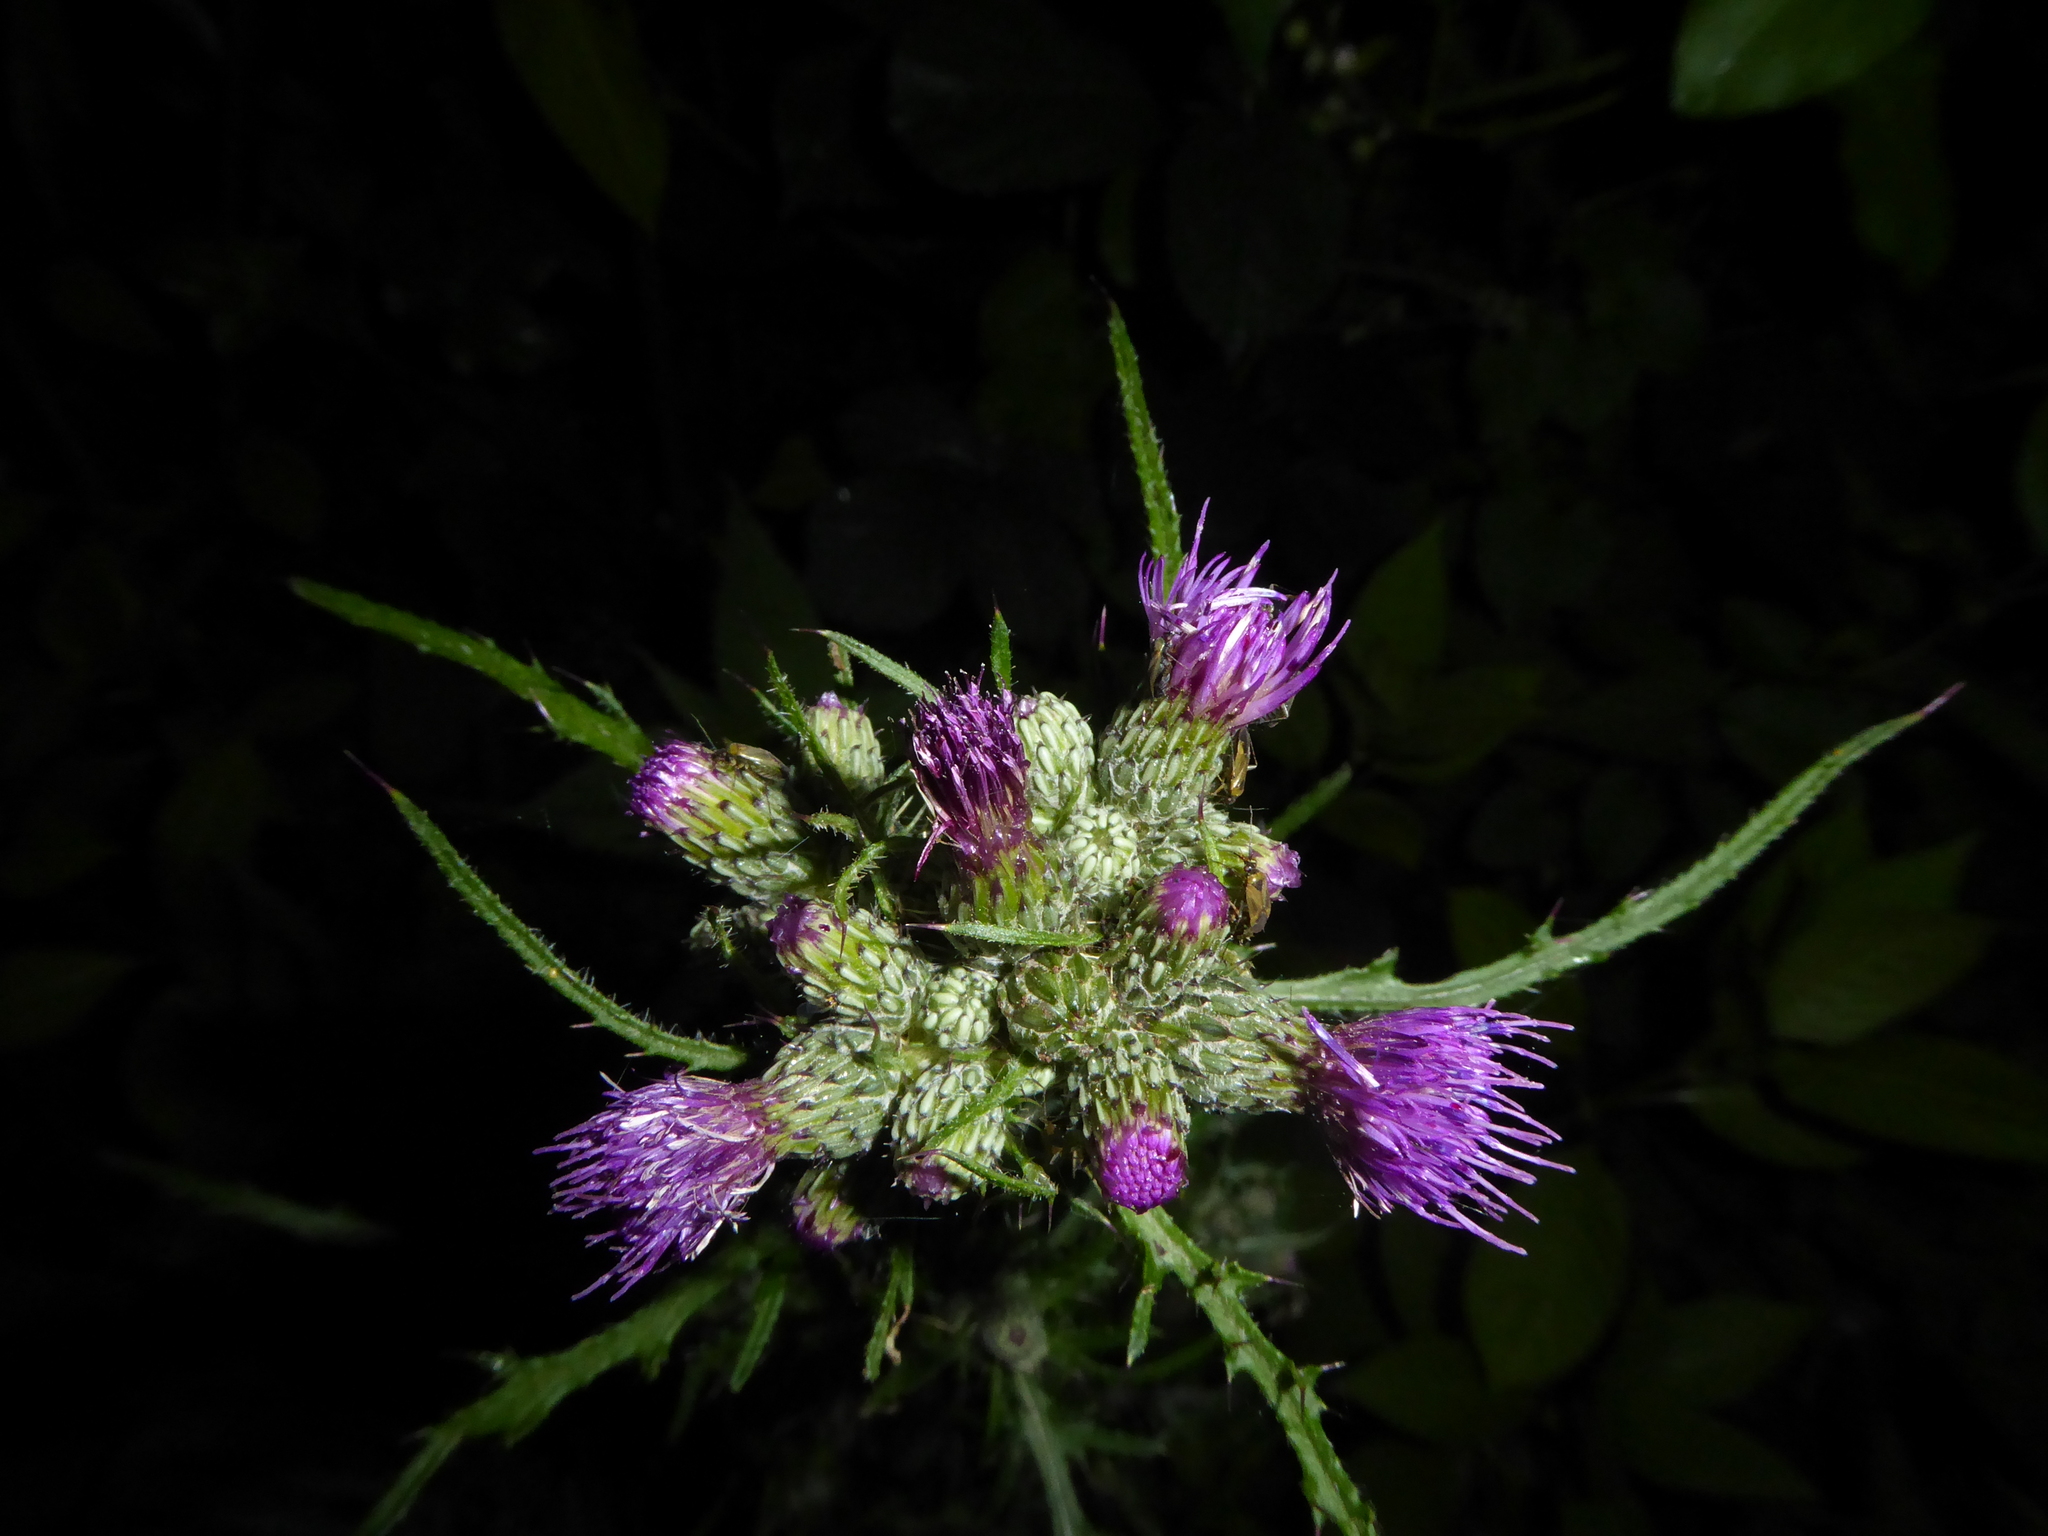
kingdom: Plantae
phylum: Tracheophyta
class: Magnoliopsida
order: Asterales
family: Asteraceae
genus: Cirsium
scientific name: Cirsium palustre
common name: Marsh thistle
